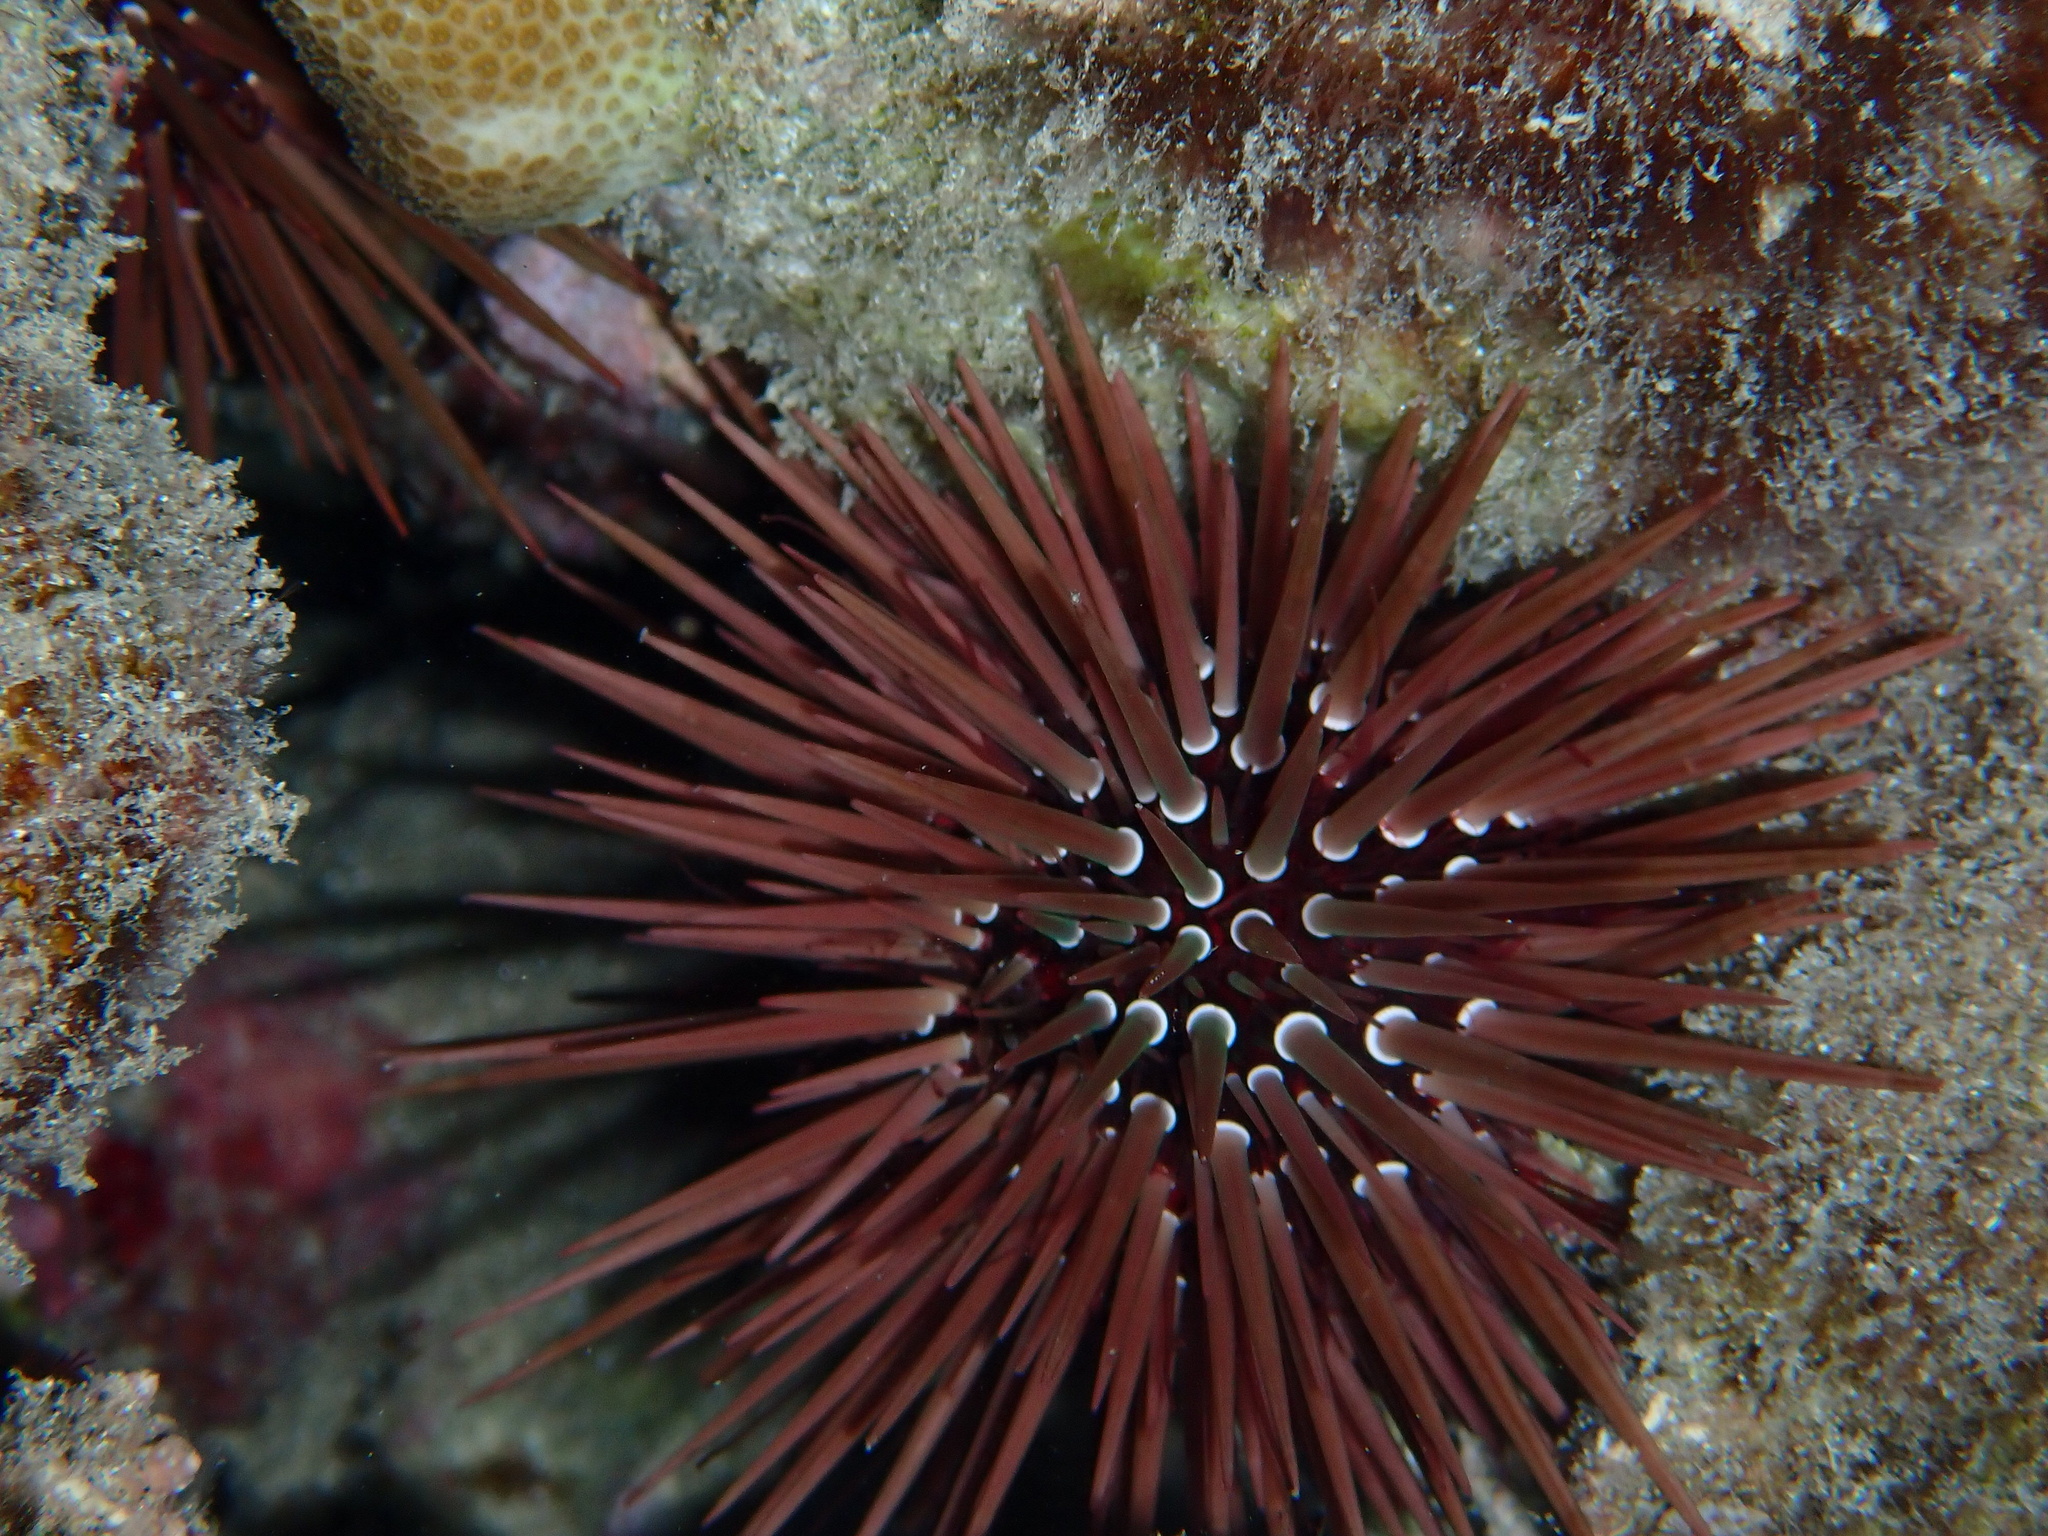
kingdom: Animalia
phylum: Echinodermata
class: Echinoidea
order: Camarodonta
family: Echinometridae
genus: Echinometra
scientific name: Echinometra mathaei
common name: Rock-boring urchin
